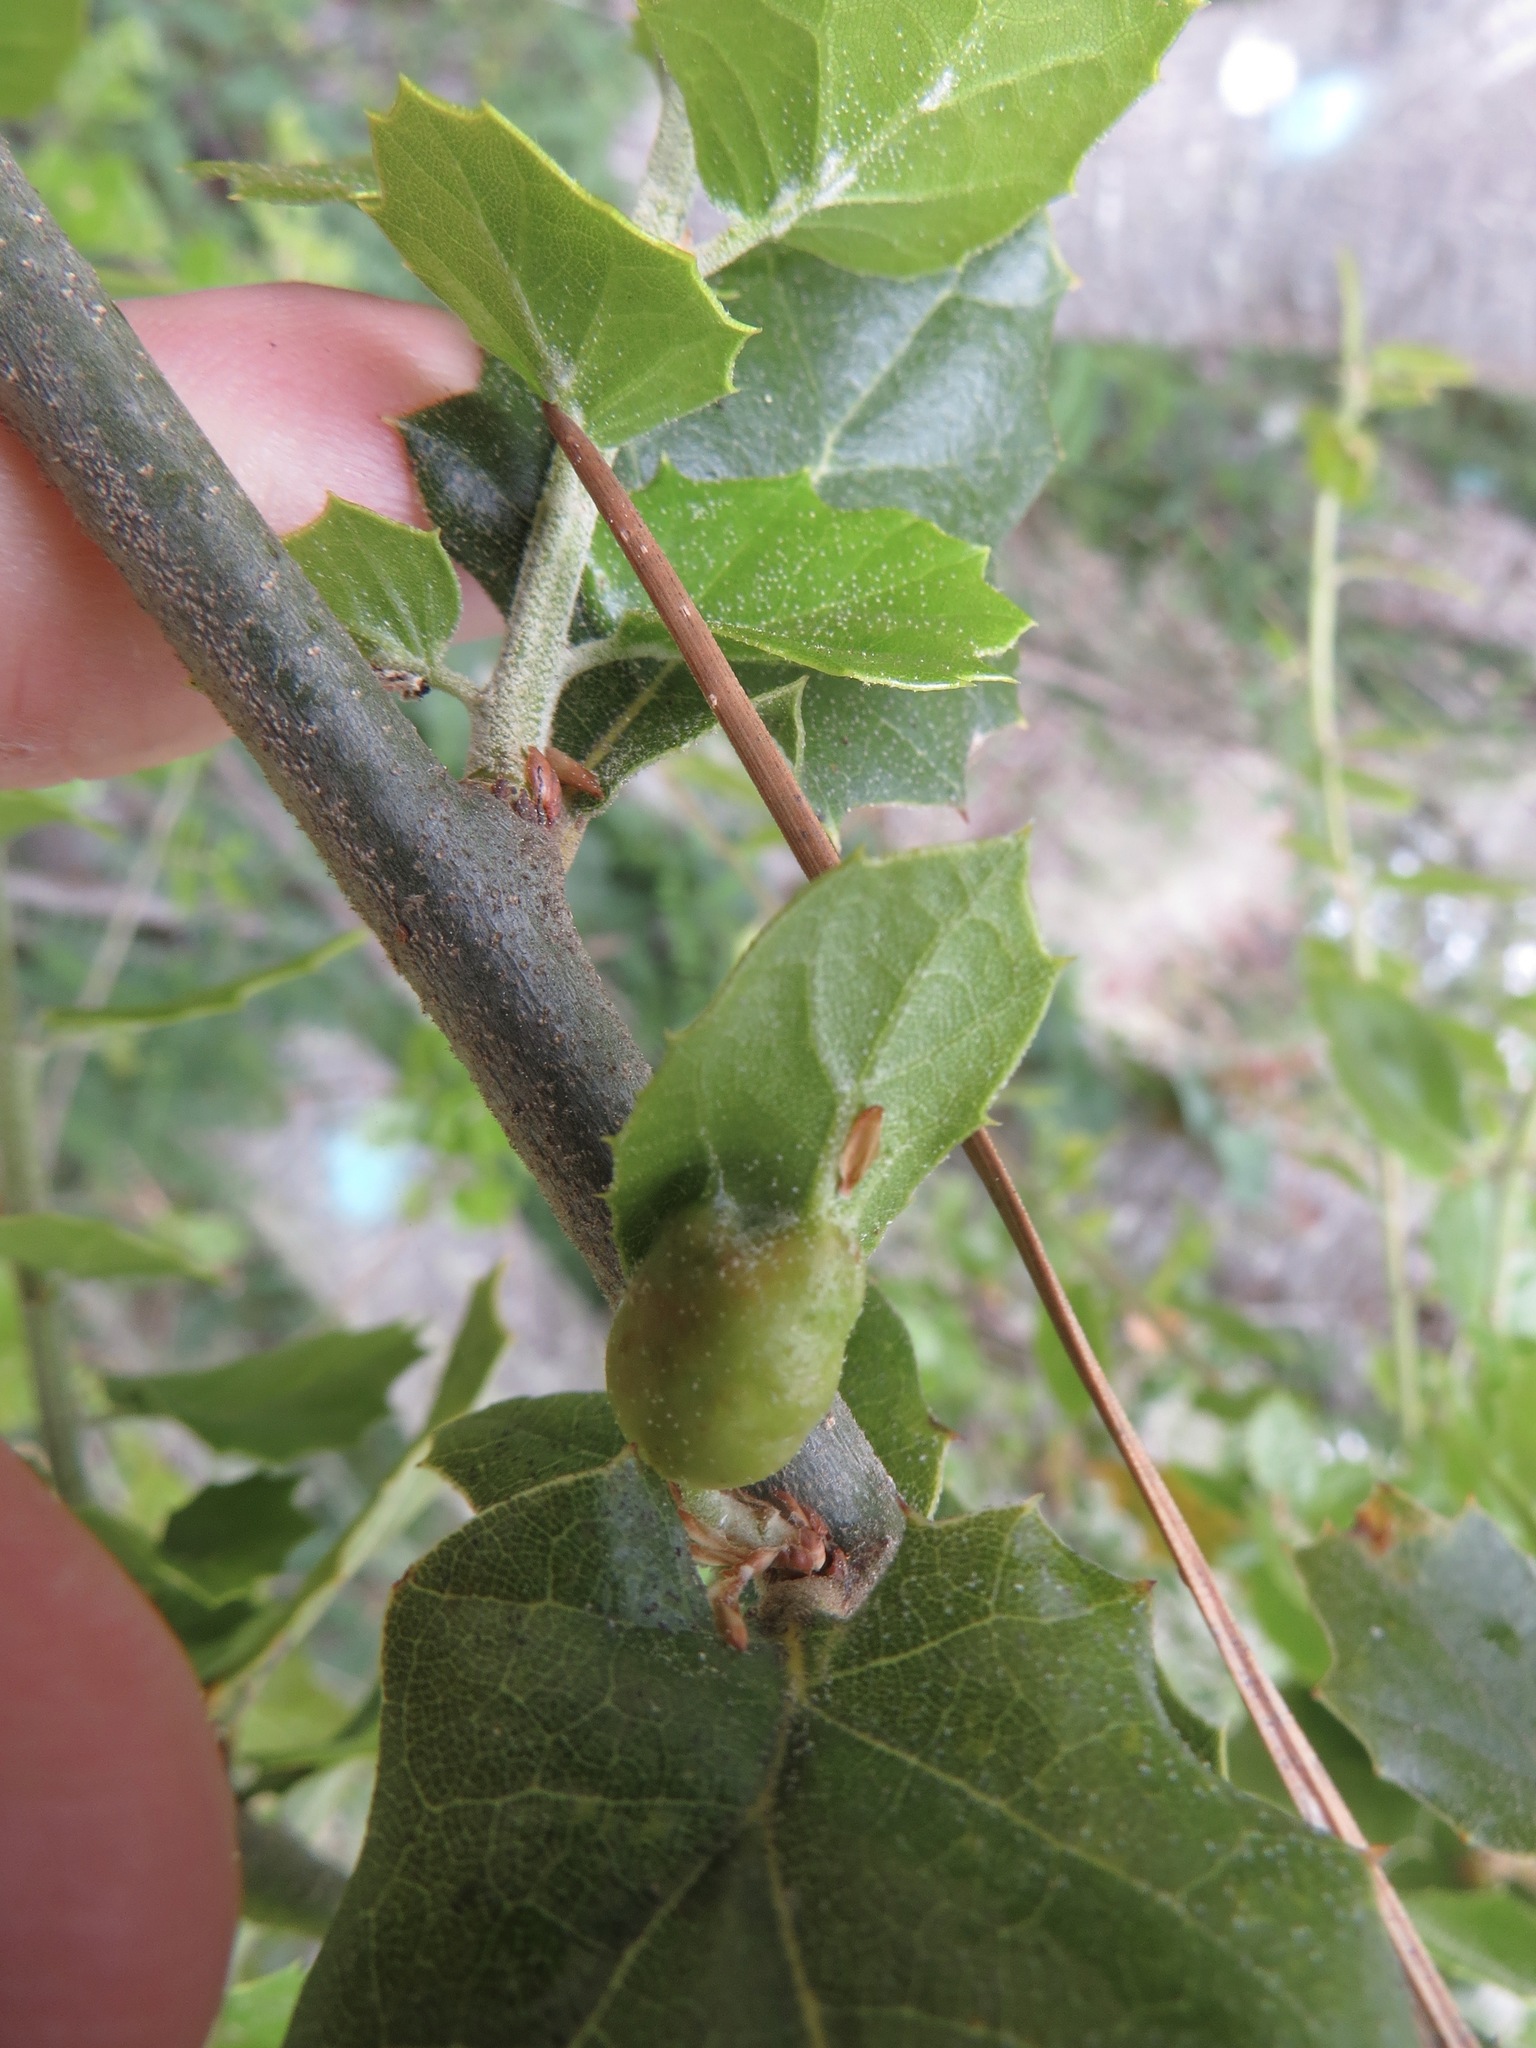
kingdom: Animalia
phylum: Arthropoda
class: Insecta
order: Hymenoptera
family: Cynipidae
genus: Melikaiella
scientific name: Melikaiella
